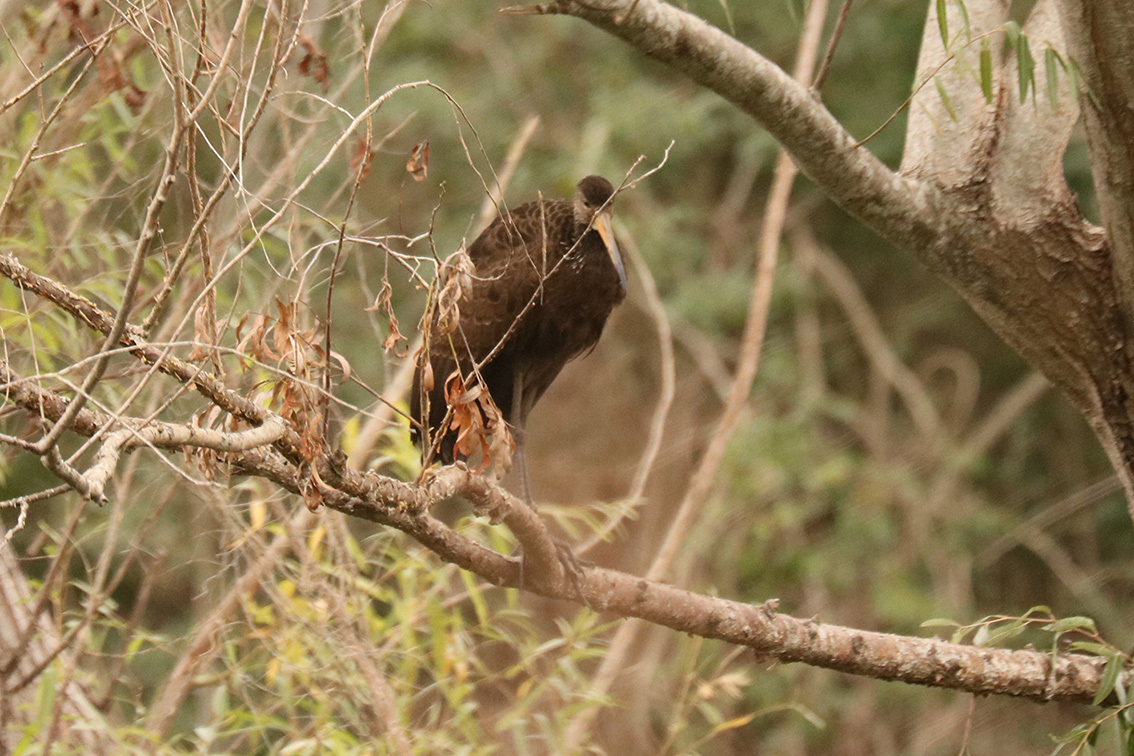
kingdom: Animalia
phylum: Chordata
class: Aves
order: Gruiformes
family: Aramidae
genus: Aramus
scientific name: Aramus guarauna
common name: Limpkin
